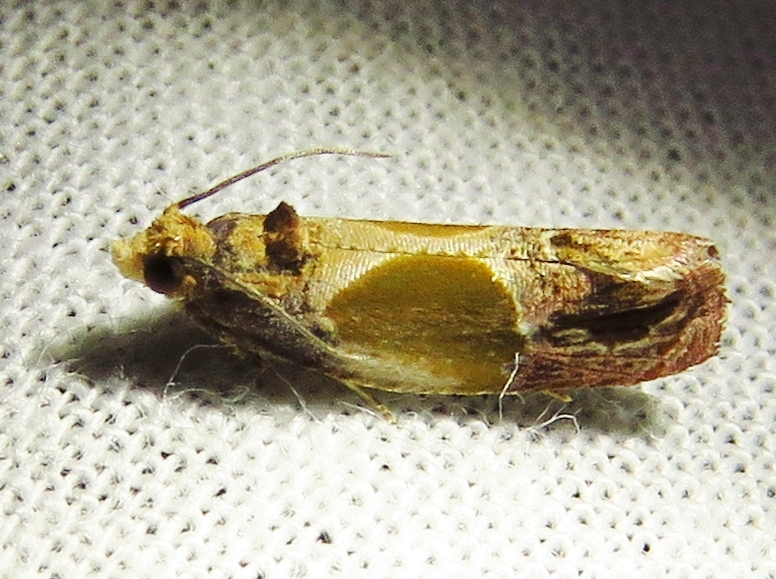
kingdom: Animalia
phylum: Arthropoda
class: Insecta
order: Lepidoptera
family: Tortricidae
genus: Eumarozia
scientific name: Eumarozia malachitana
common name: Sculptured moth
